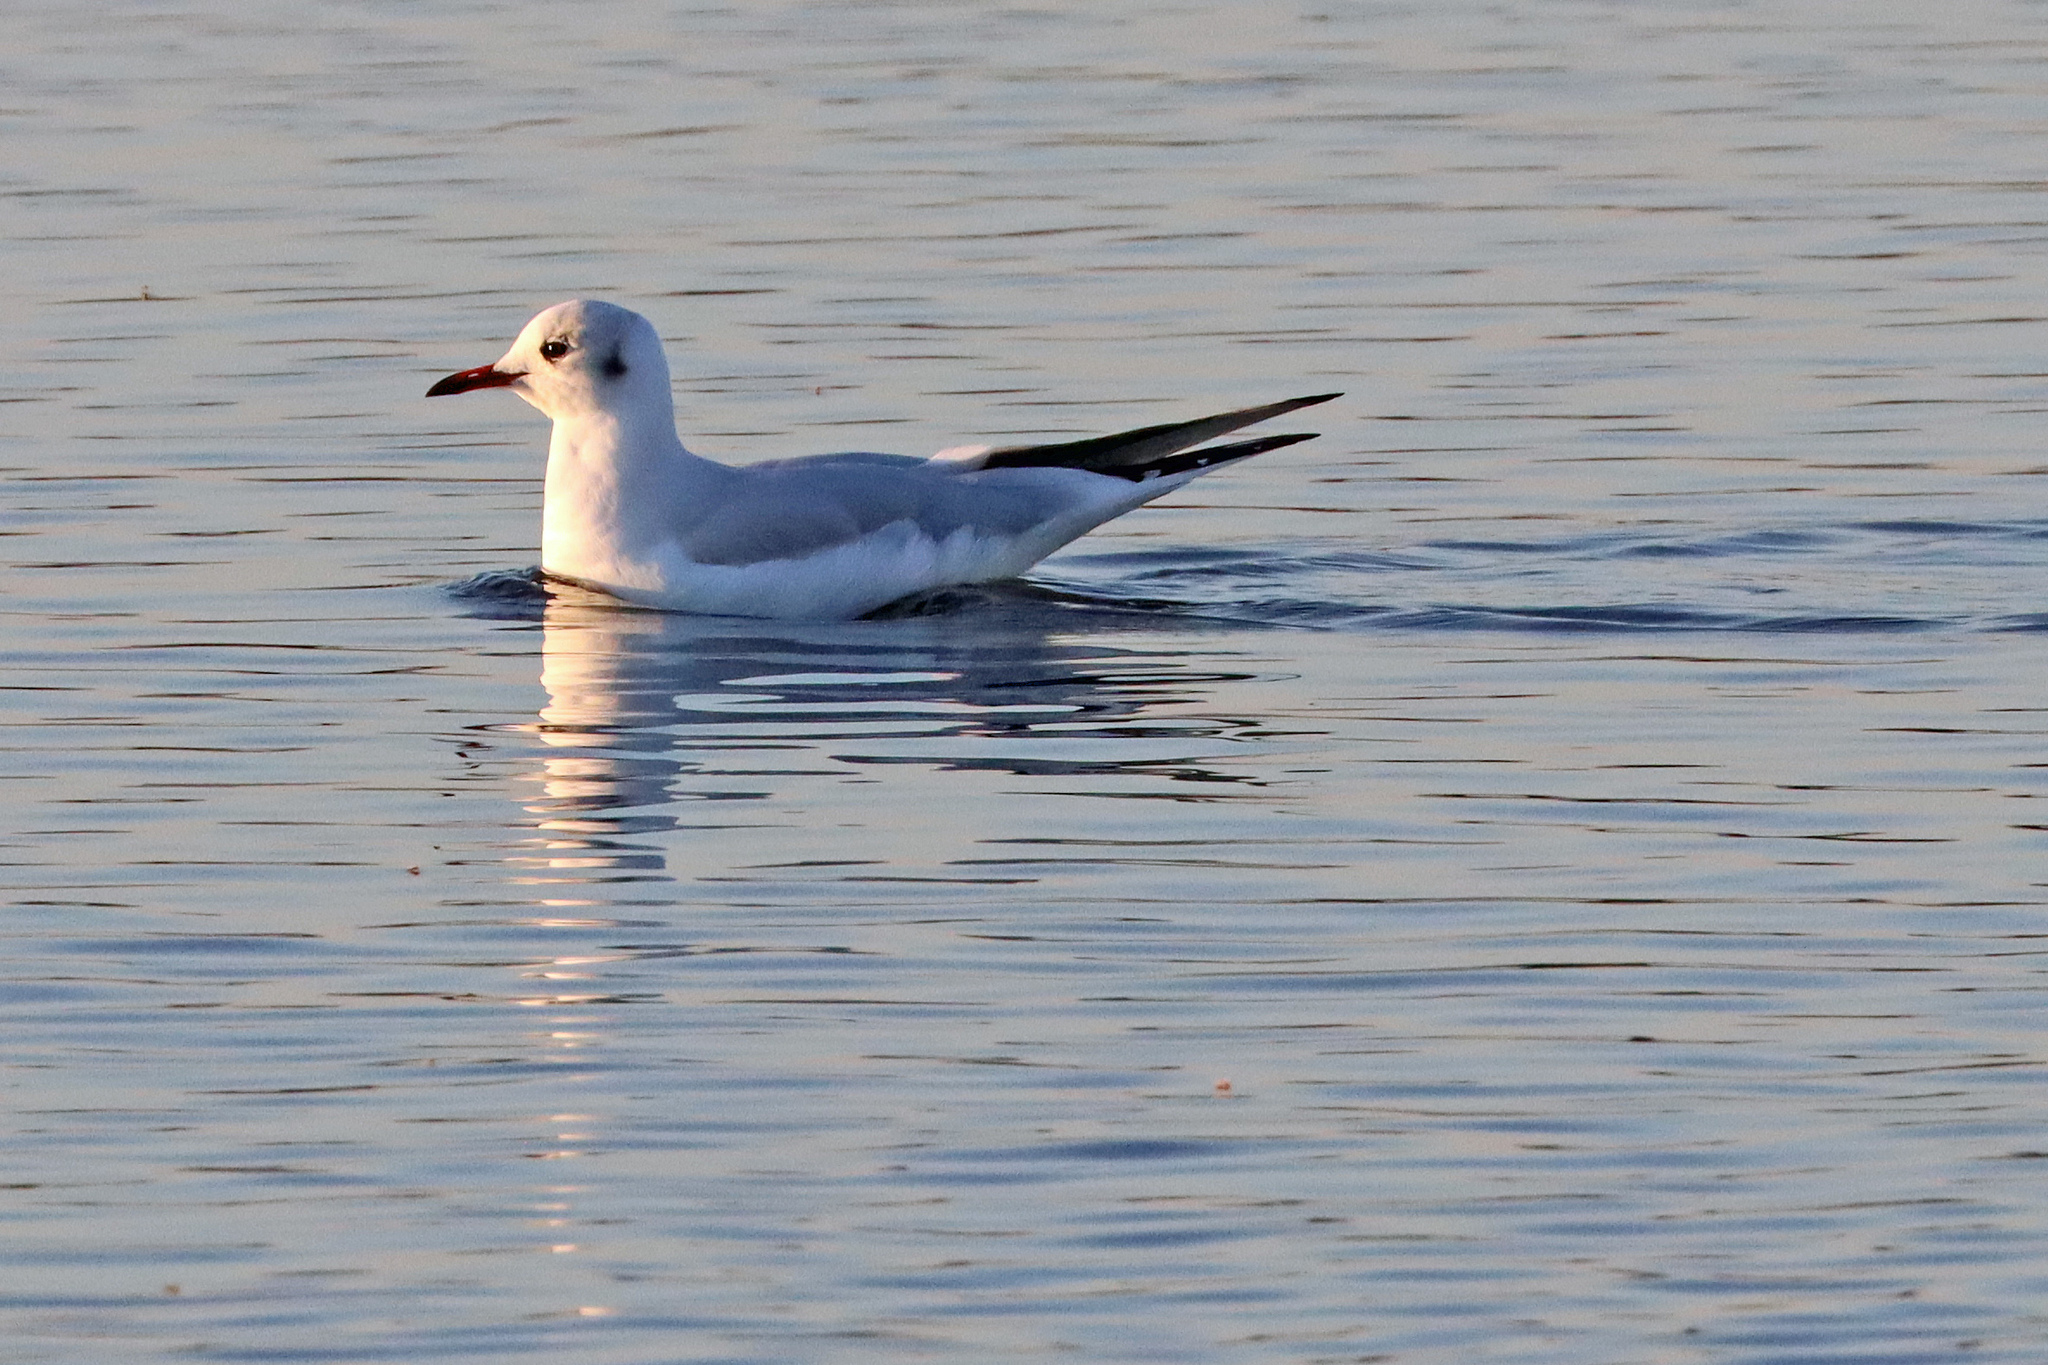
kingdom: Animalia
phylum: Chordata
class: Aves
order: Charadriiformes
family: Laridae
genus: Chroicocephalus
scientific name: Chroicocephalus ridibundus
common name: Black-headed gull
